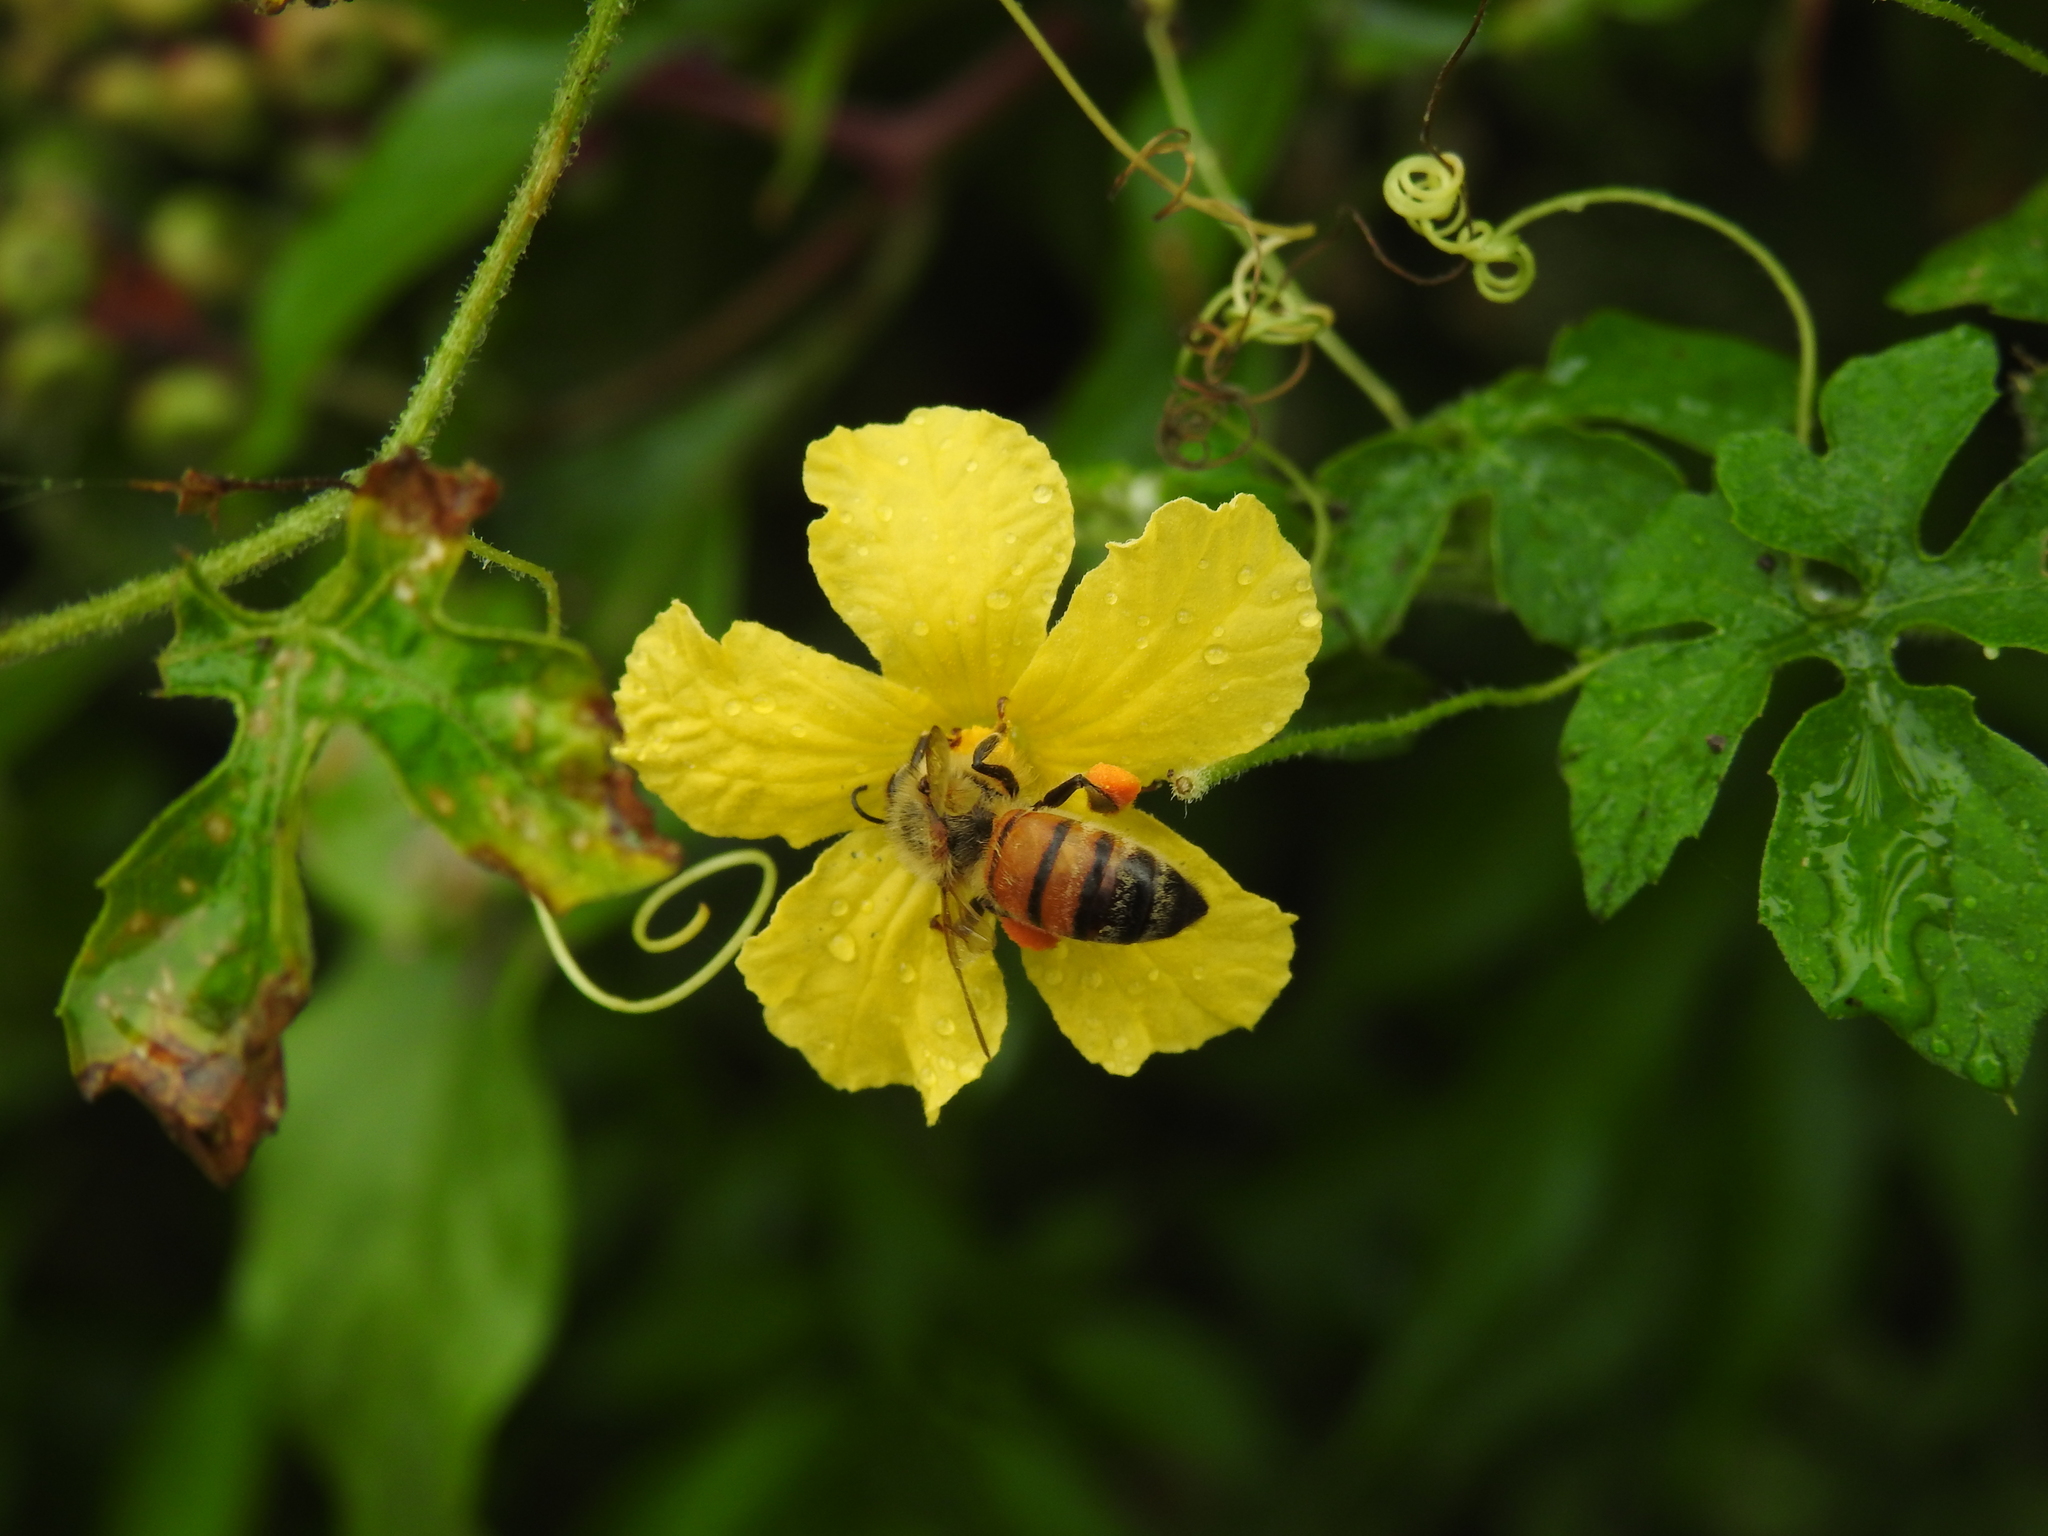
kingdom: Animalia
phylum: Arthropoda
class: Insecta
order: Hymenoptera
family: Apidae
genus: Apis
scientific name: Apis mellifera
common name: Honey bee
